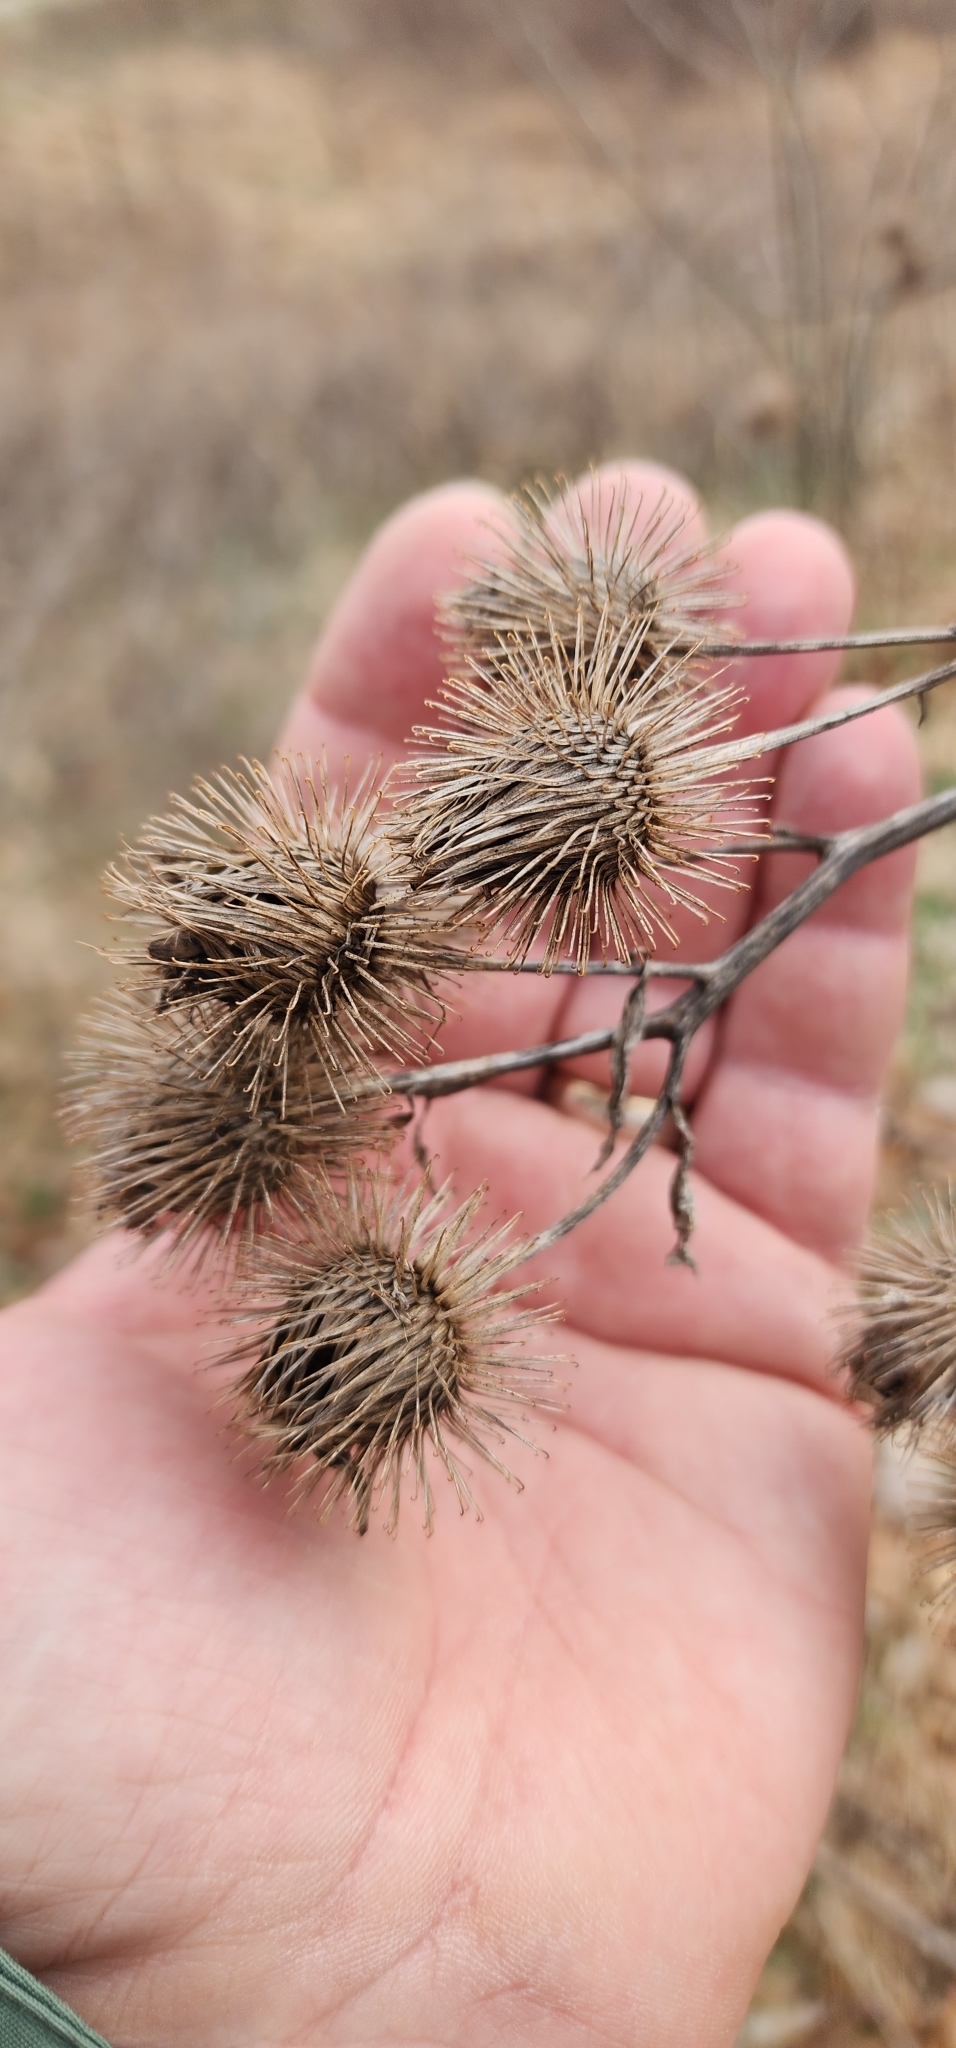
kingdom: Plantae
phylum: Tracheophyta
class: Magnoliopsida
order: Asterales
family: Asteraceae
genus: Arctium
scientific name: Arctium lappa
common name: Greater burdock
